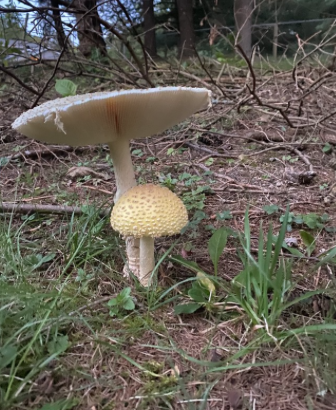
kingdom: Fungi
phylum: Basidiomycota
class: Agaricomycetes
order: Agaricales
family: Amanitaceae
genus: Amanita
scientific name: Amanita muscaria
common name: Fly agaric
